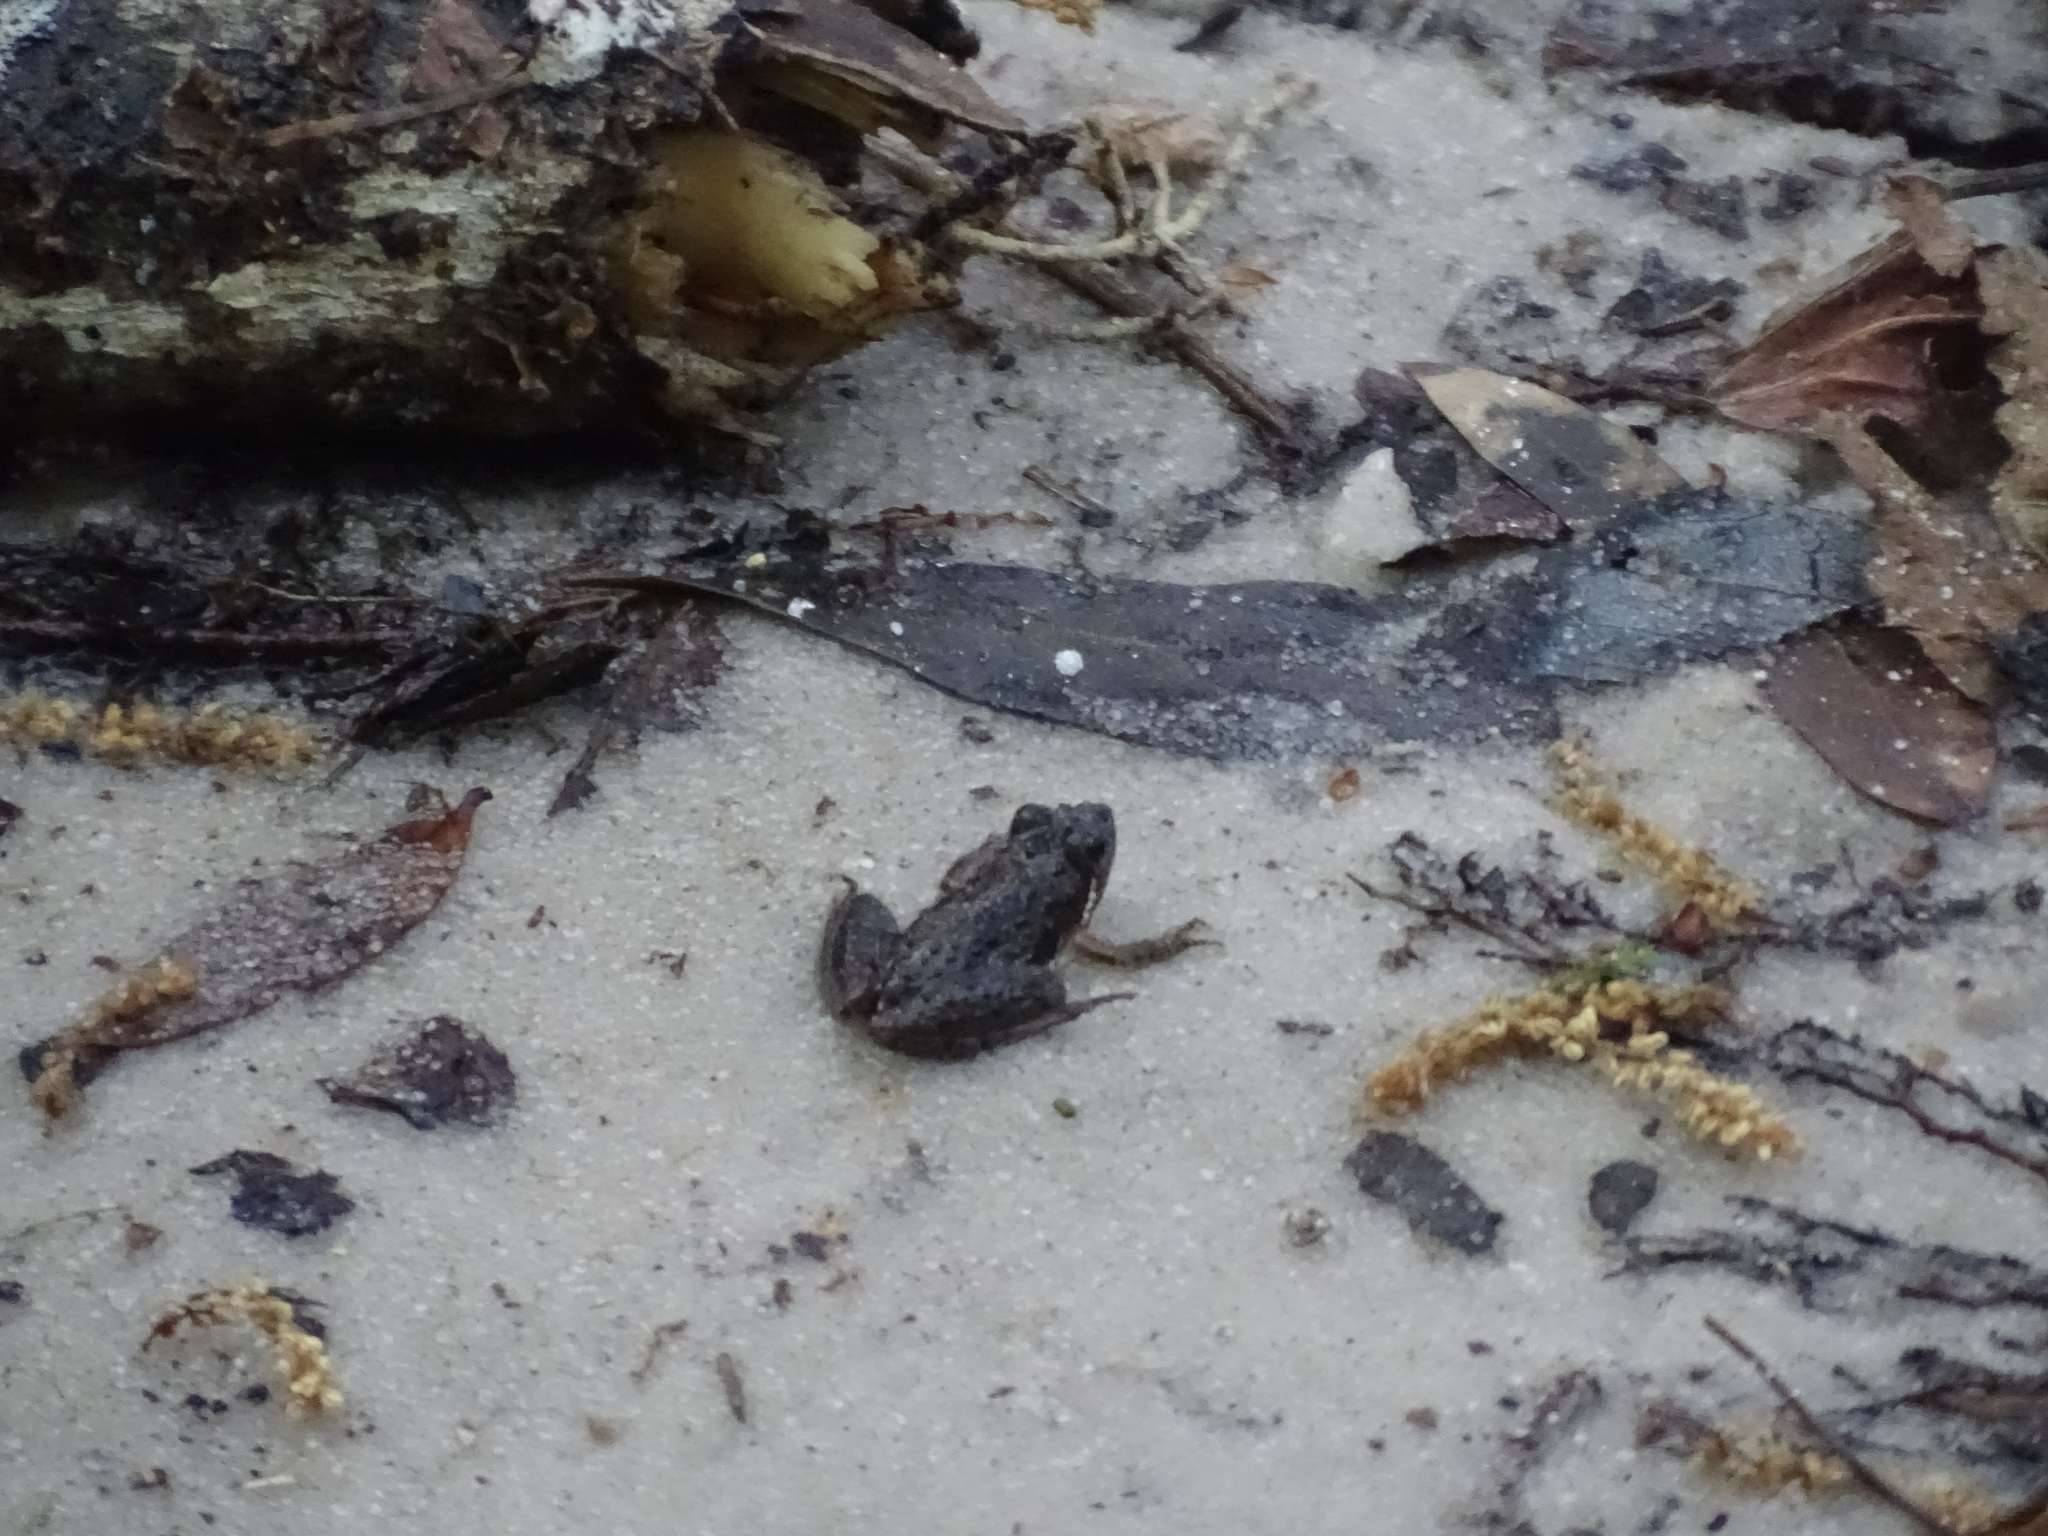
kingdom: Animalia
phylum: Chordata
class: Amphibia
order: Anura
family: Hylidae
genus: Acris
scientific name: Acris gryllus
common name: Southern cricket frog
